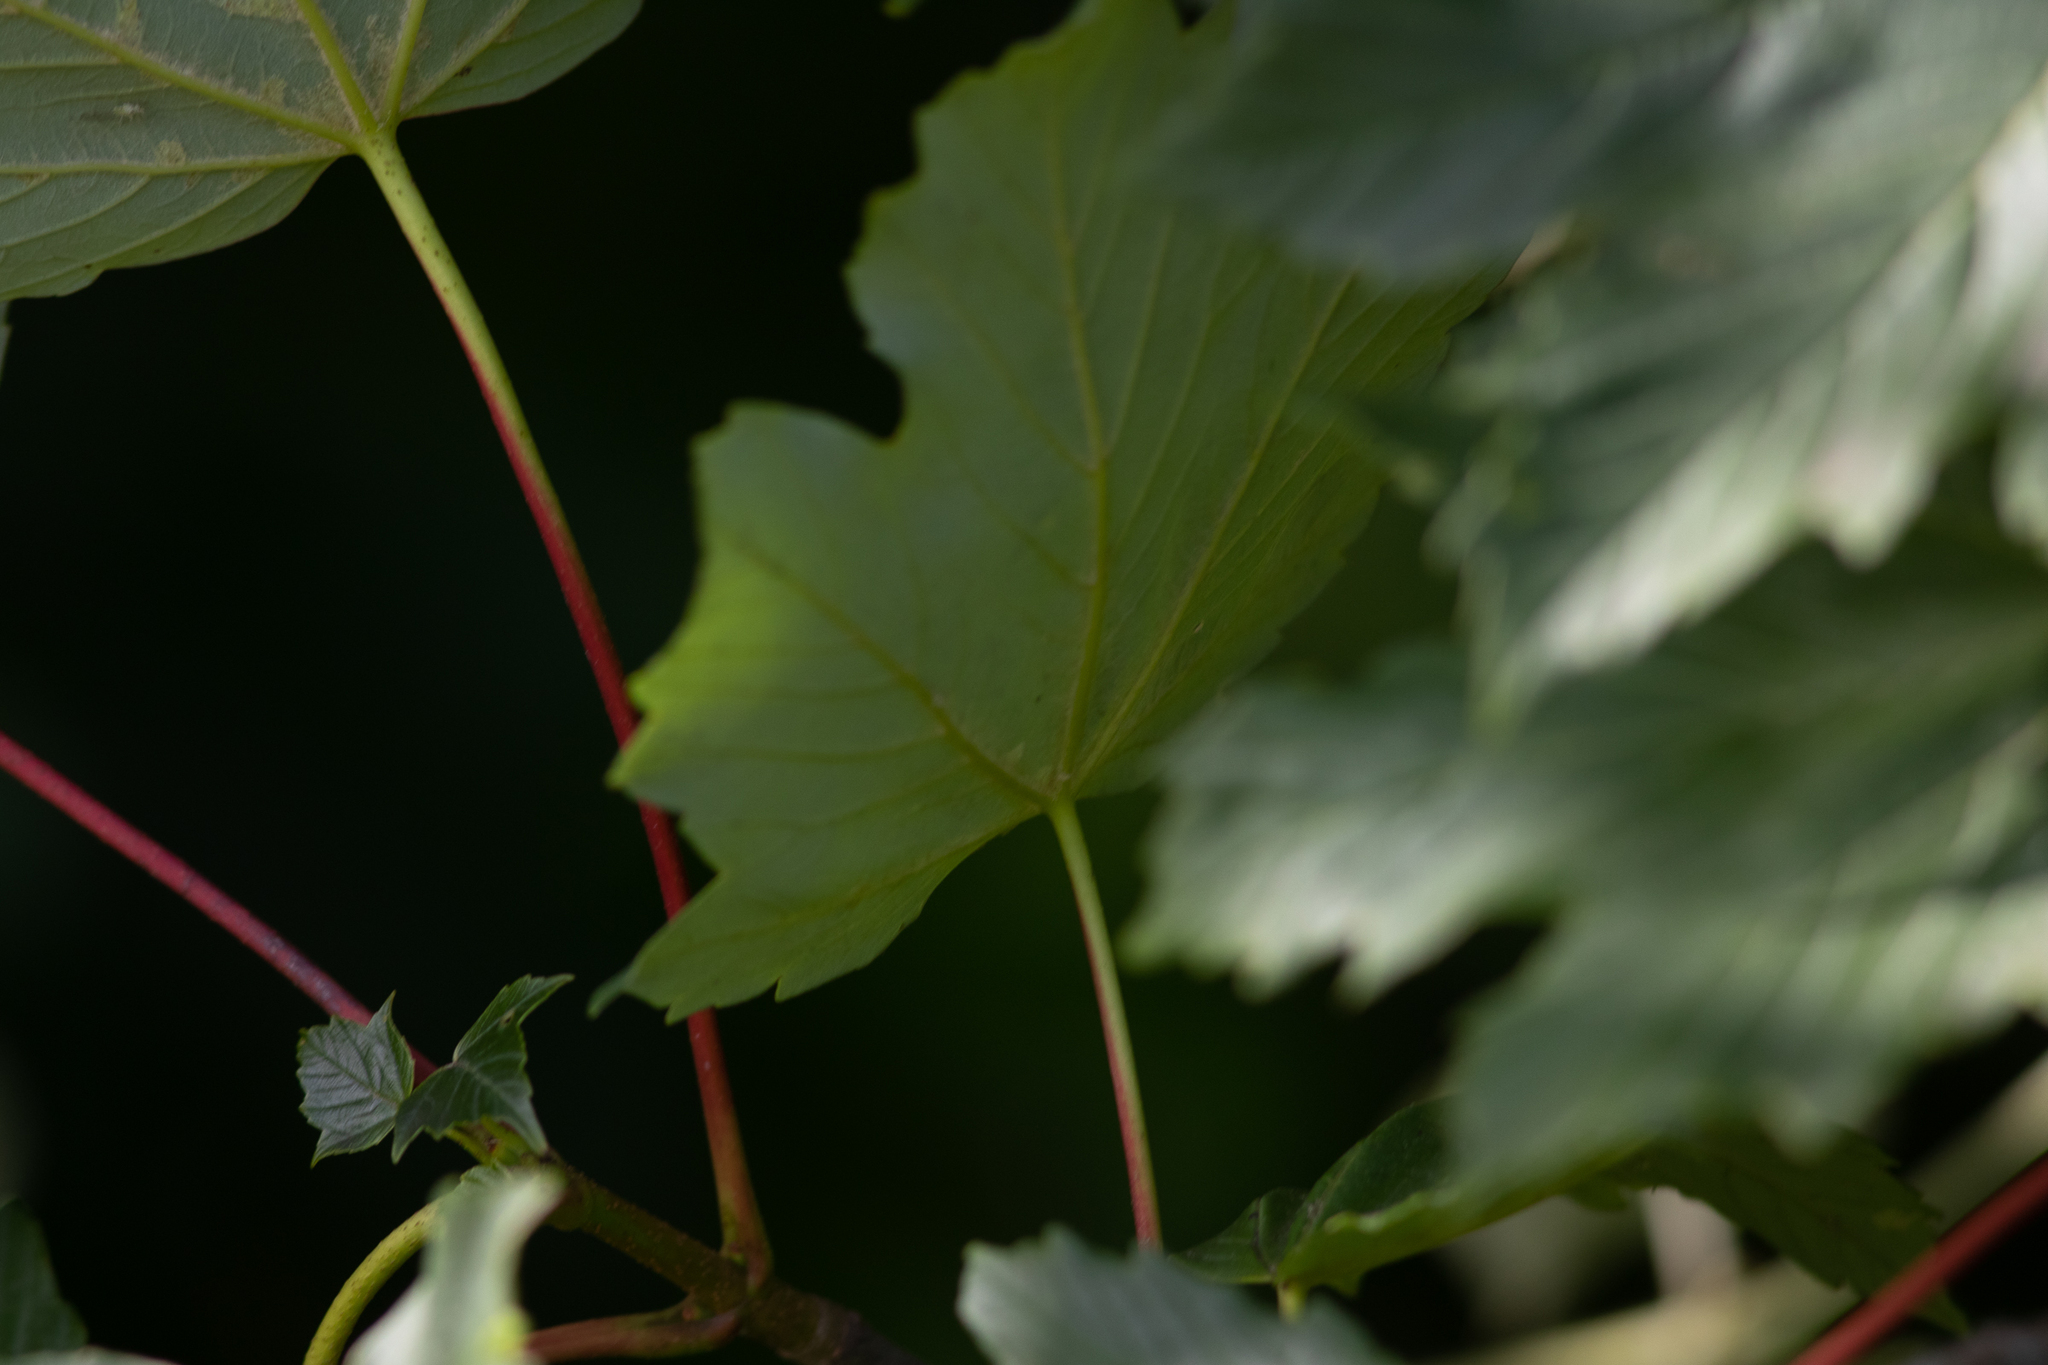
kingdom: Plantae
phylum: Tracheophyta
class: Magnoliopsida
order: Sapindales
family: Sapindaceae
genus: Acer
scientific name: Acer pseudoplatanus
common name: Sycamore
